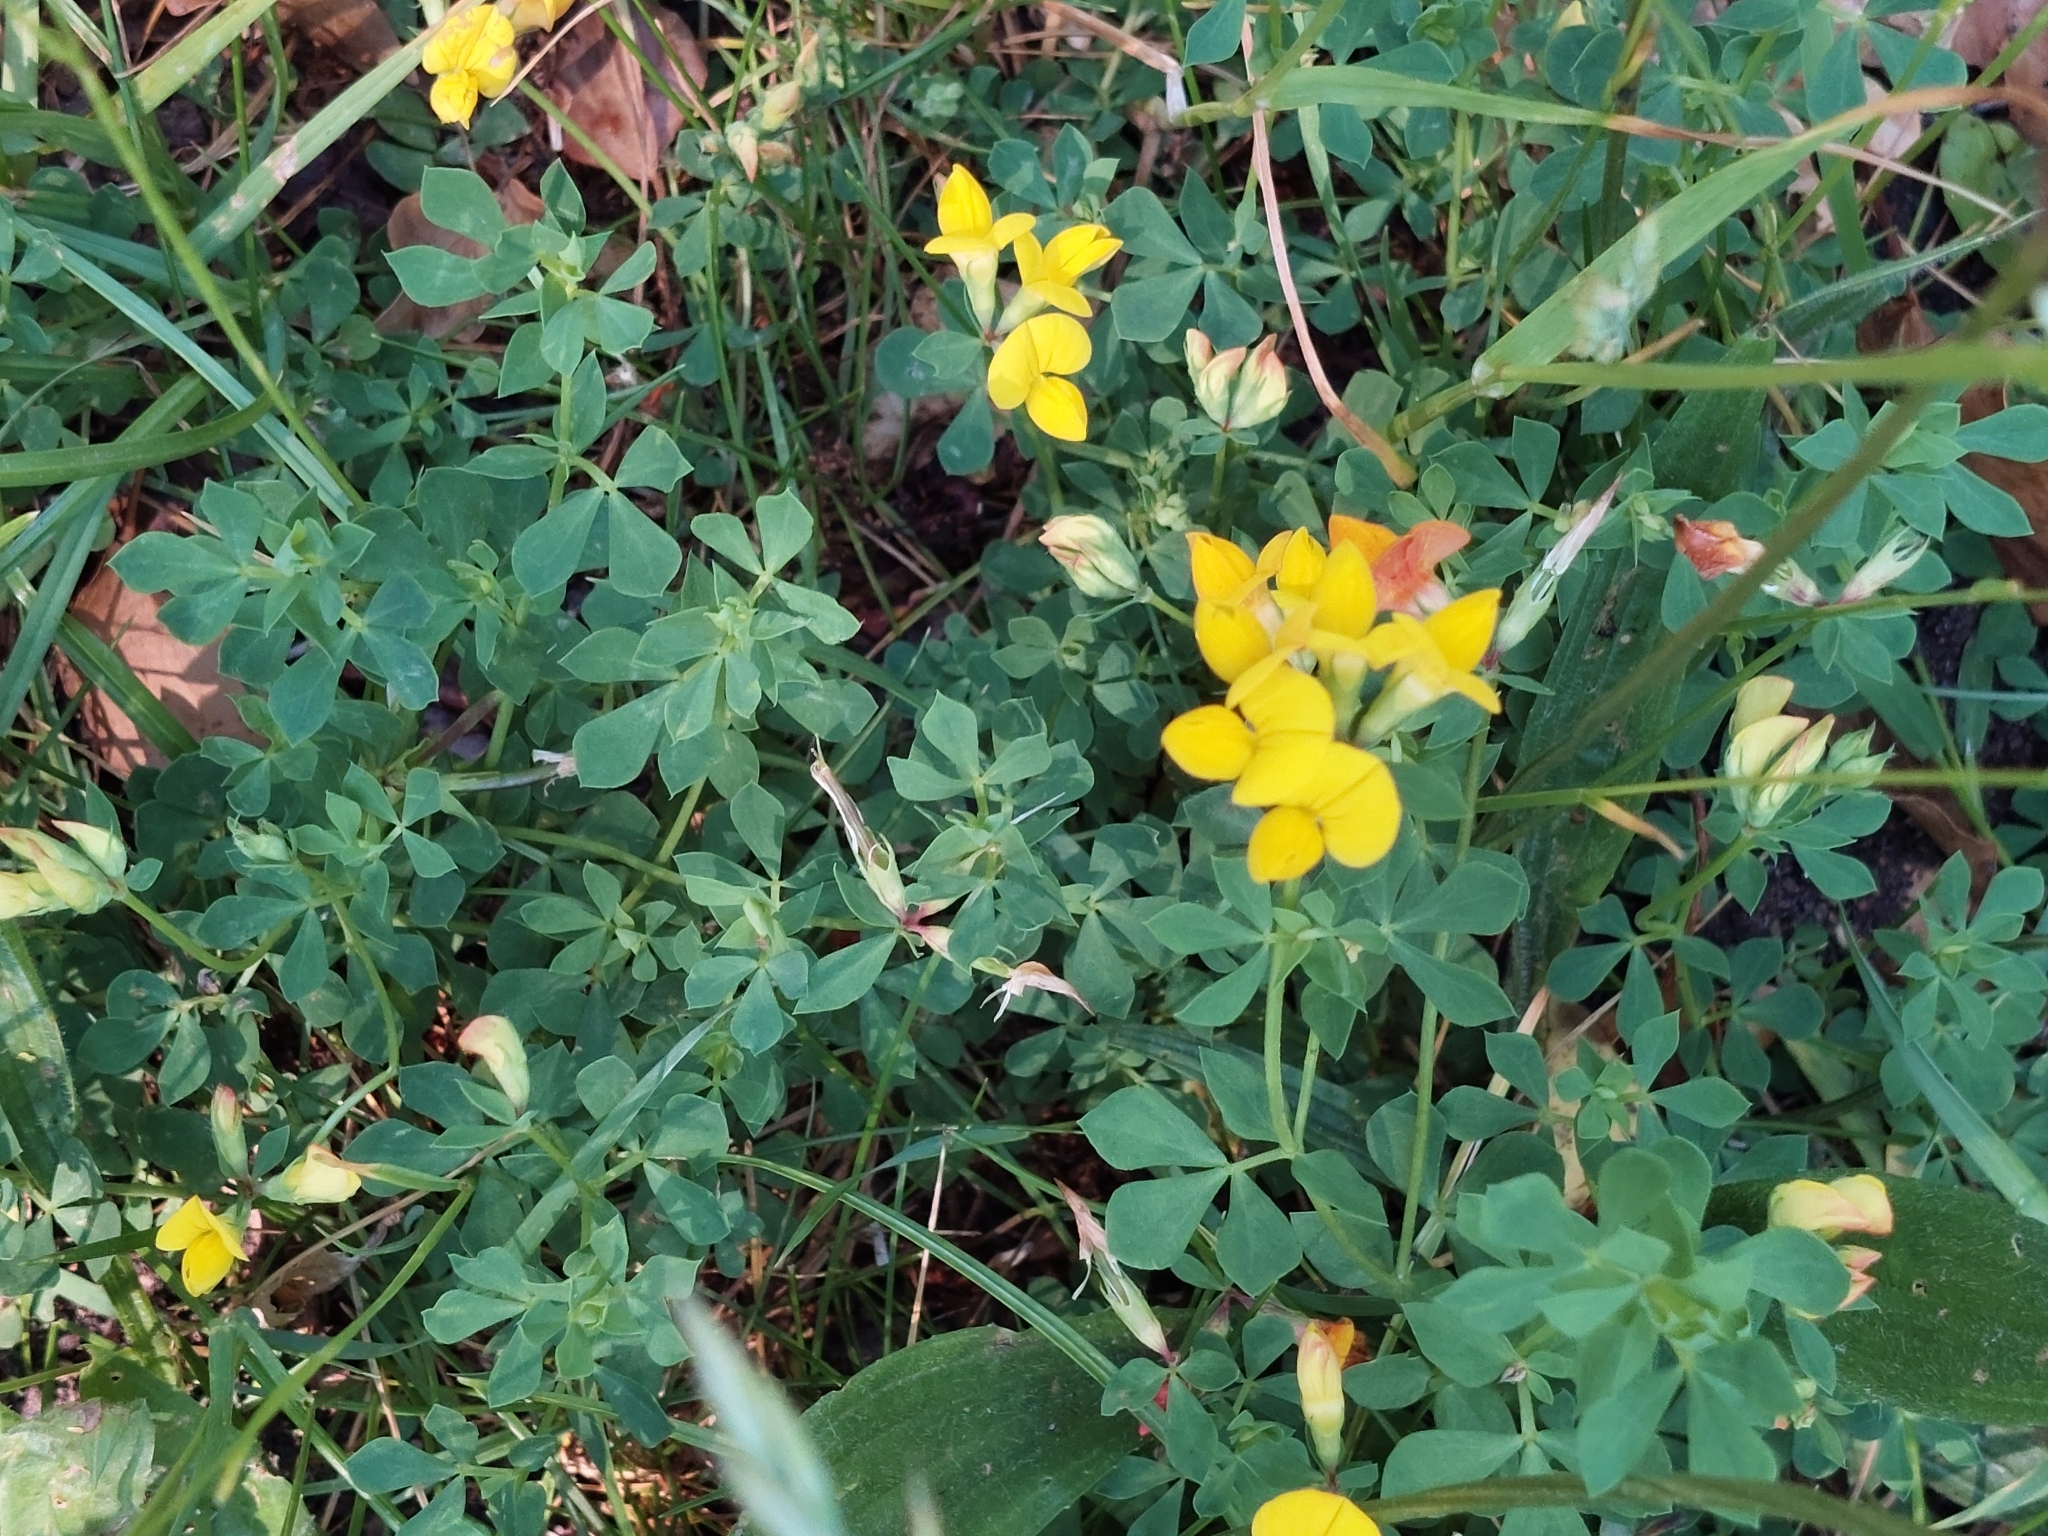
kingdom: Plantae
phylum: Tracheophyta
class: Magnoliopsida
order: Fabales
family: Fabaceae
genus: Lotus
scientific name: Lotus corniculatus
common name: Common bird's-foot-trefoil
